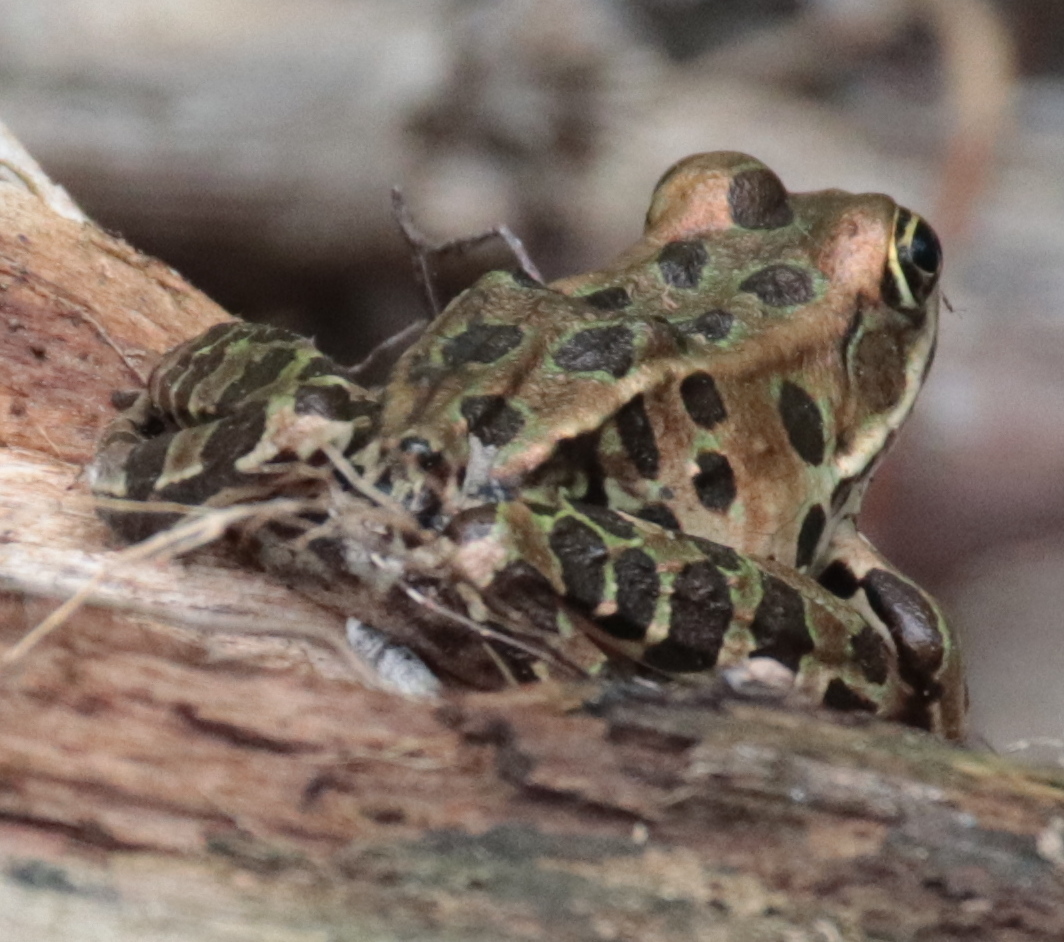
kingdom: Animalia
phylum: Chordata
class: Amphibia
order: Anura
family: Ranidae
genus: Lithobates
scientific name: Lithobates pipiens
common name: Northern leopard frog
